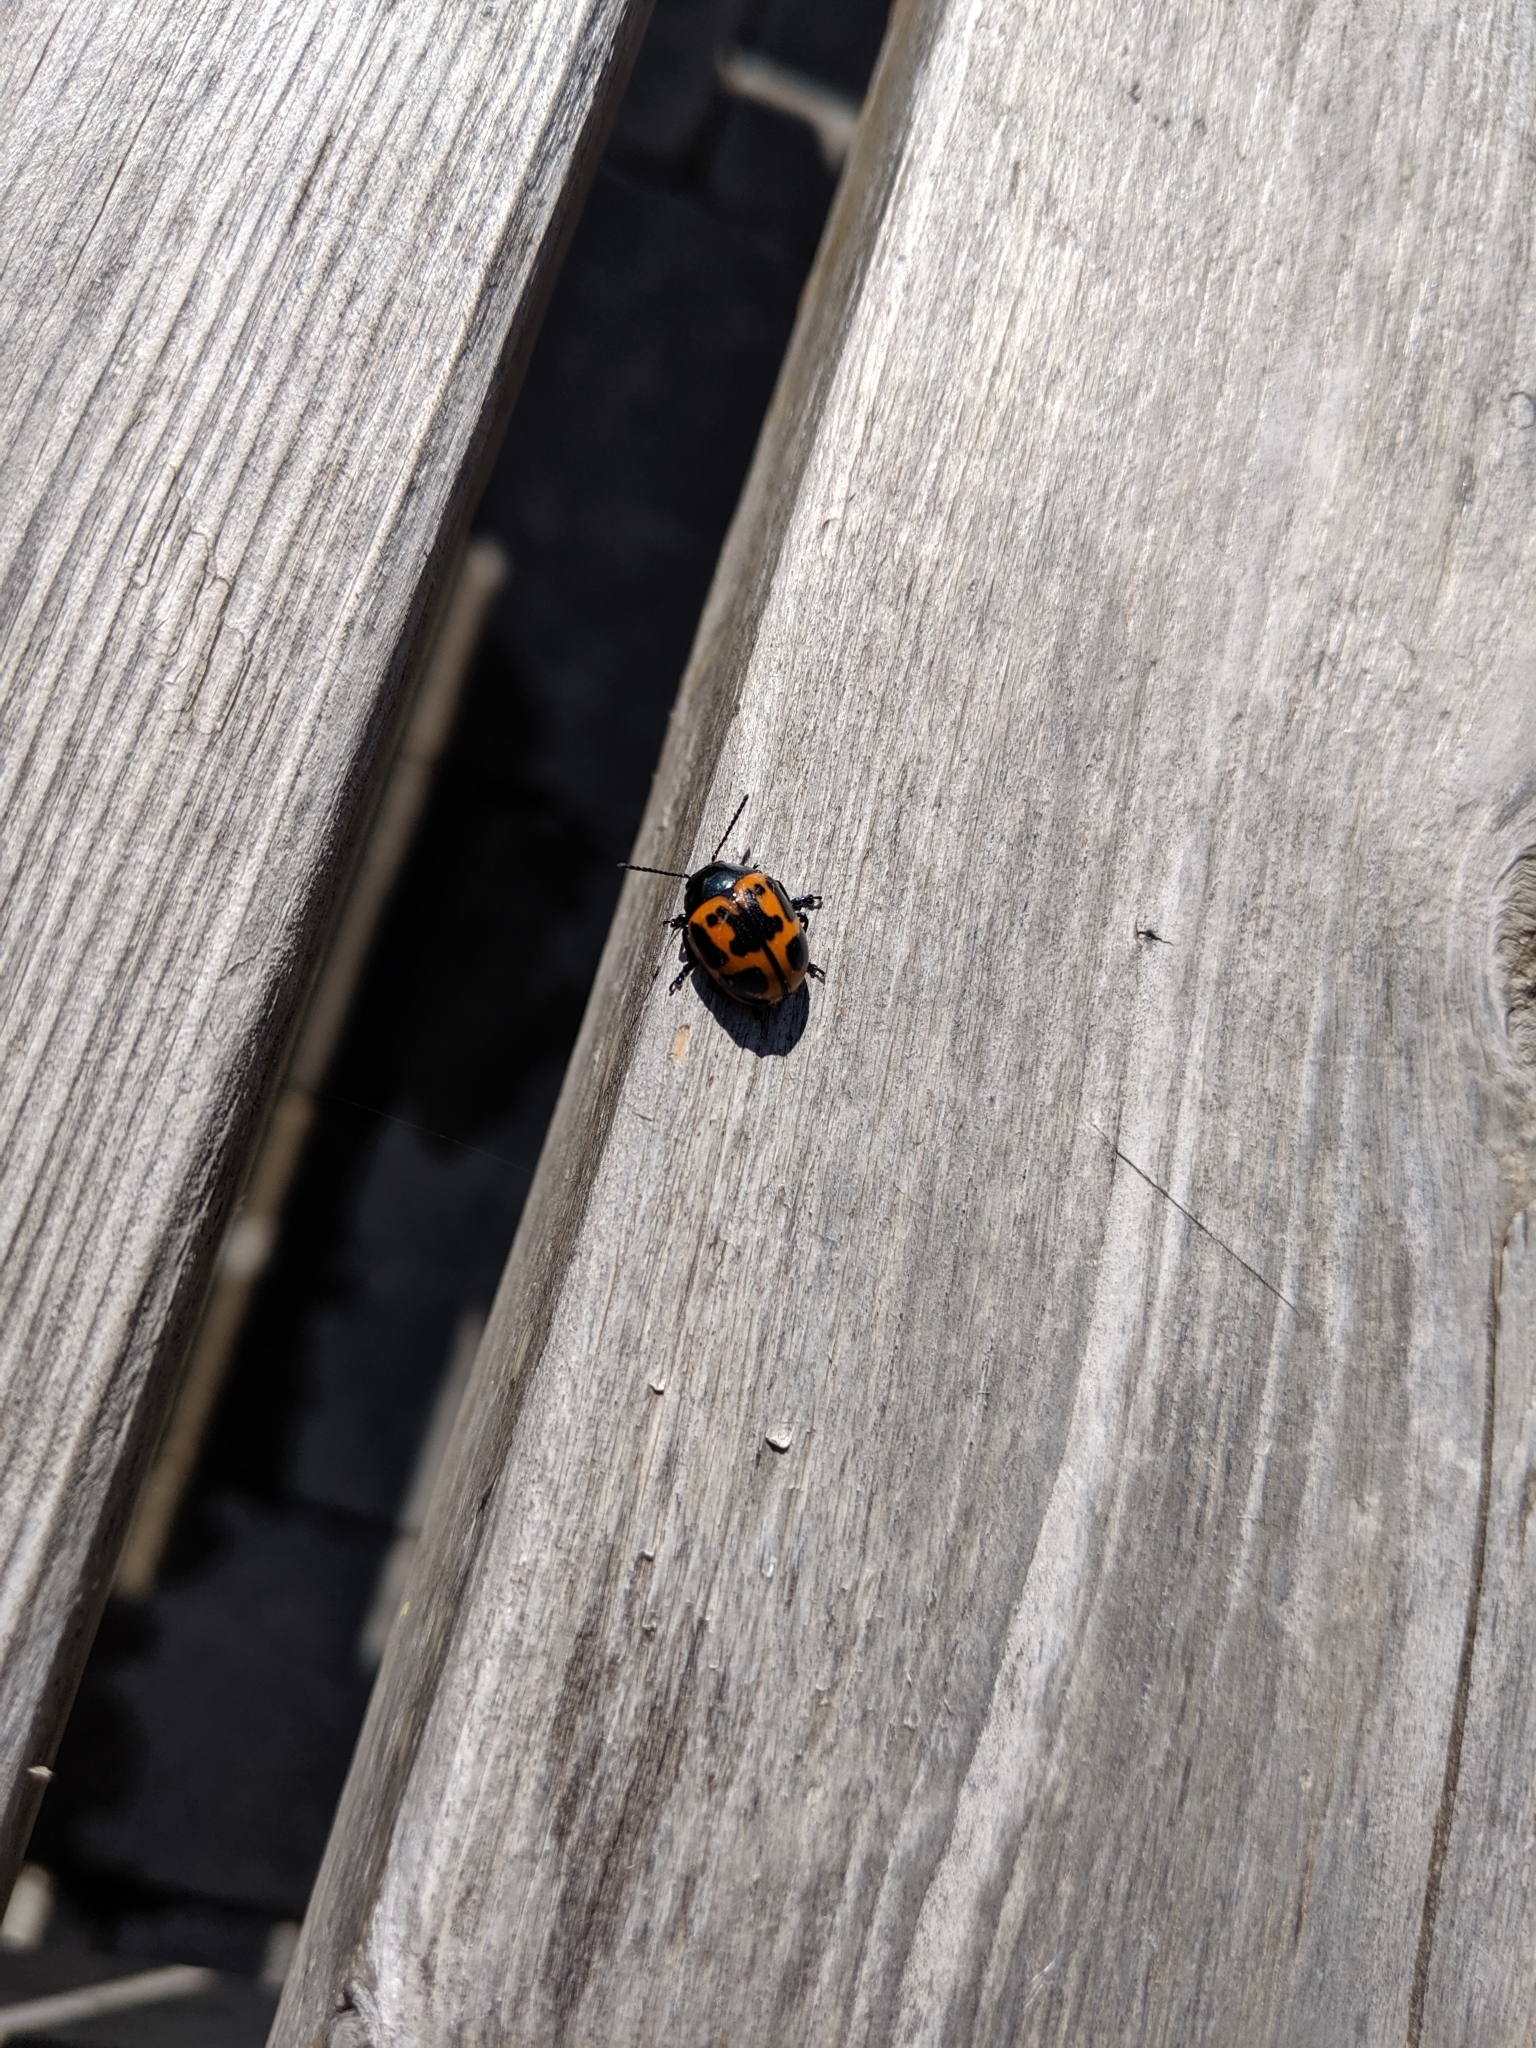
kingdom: Animalia
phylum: Arthropoda
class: Insecta
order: Coleoptera
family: Chrysomelidae
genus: Labidomera
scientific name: Labidomera clivicollis
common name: Swamp milkweed leaf beetle
